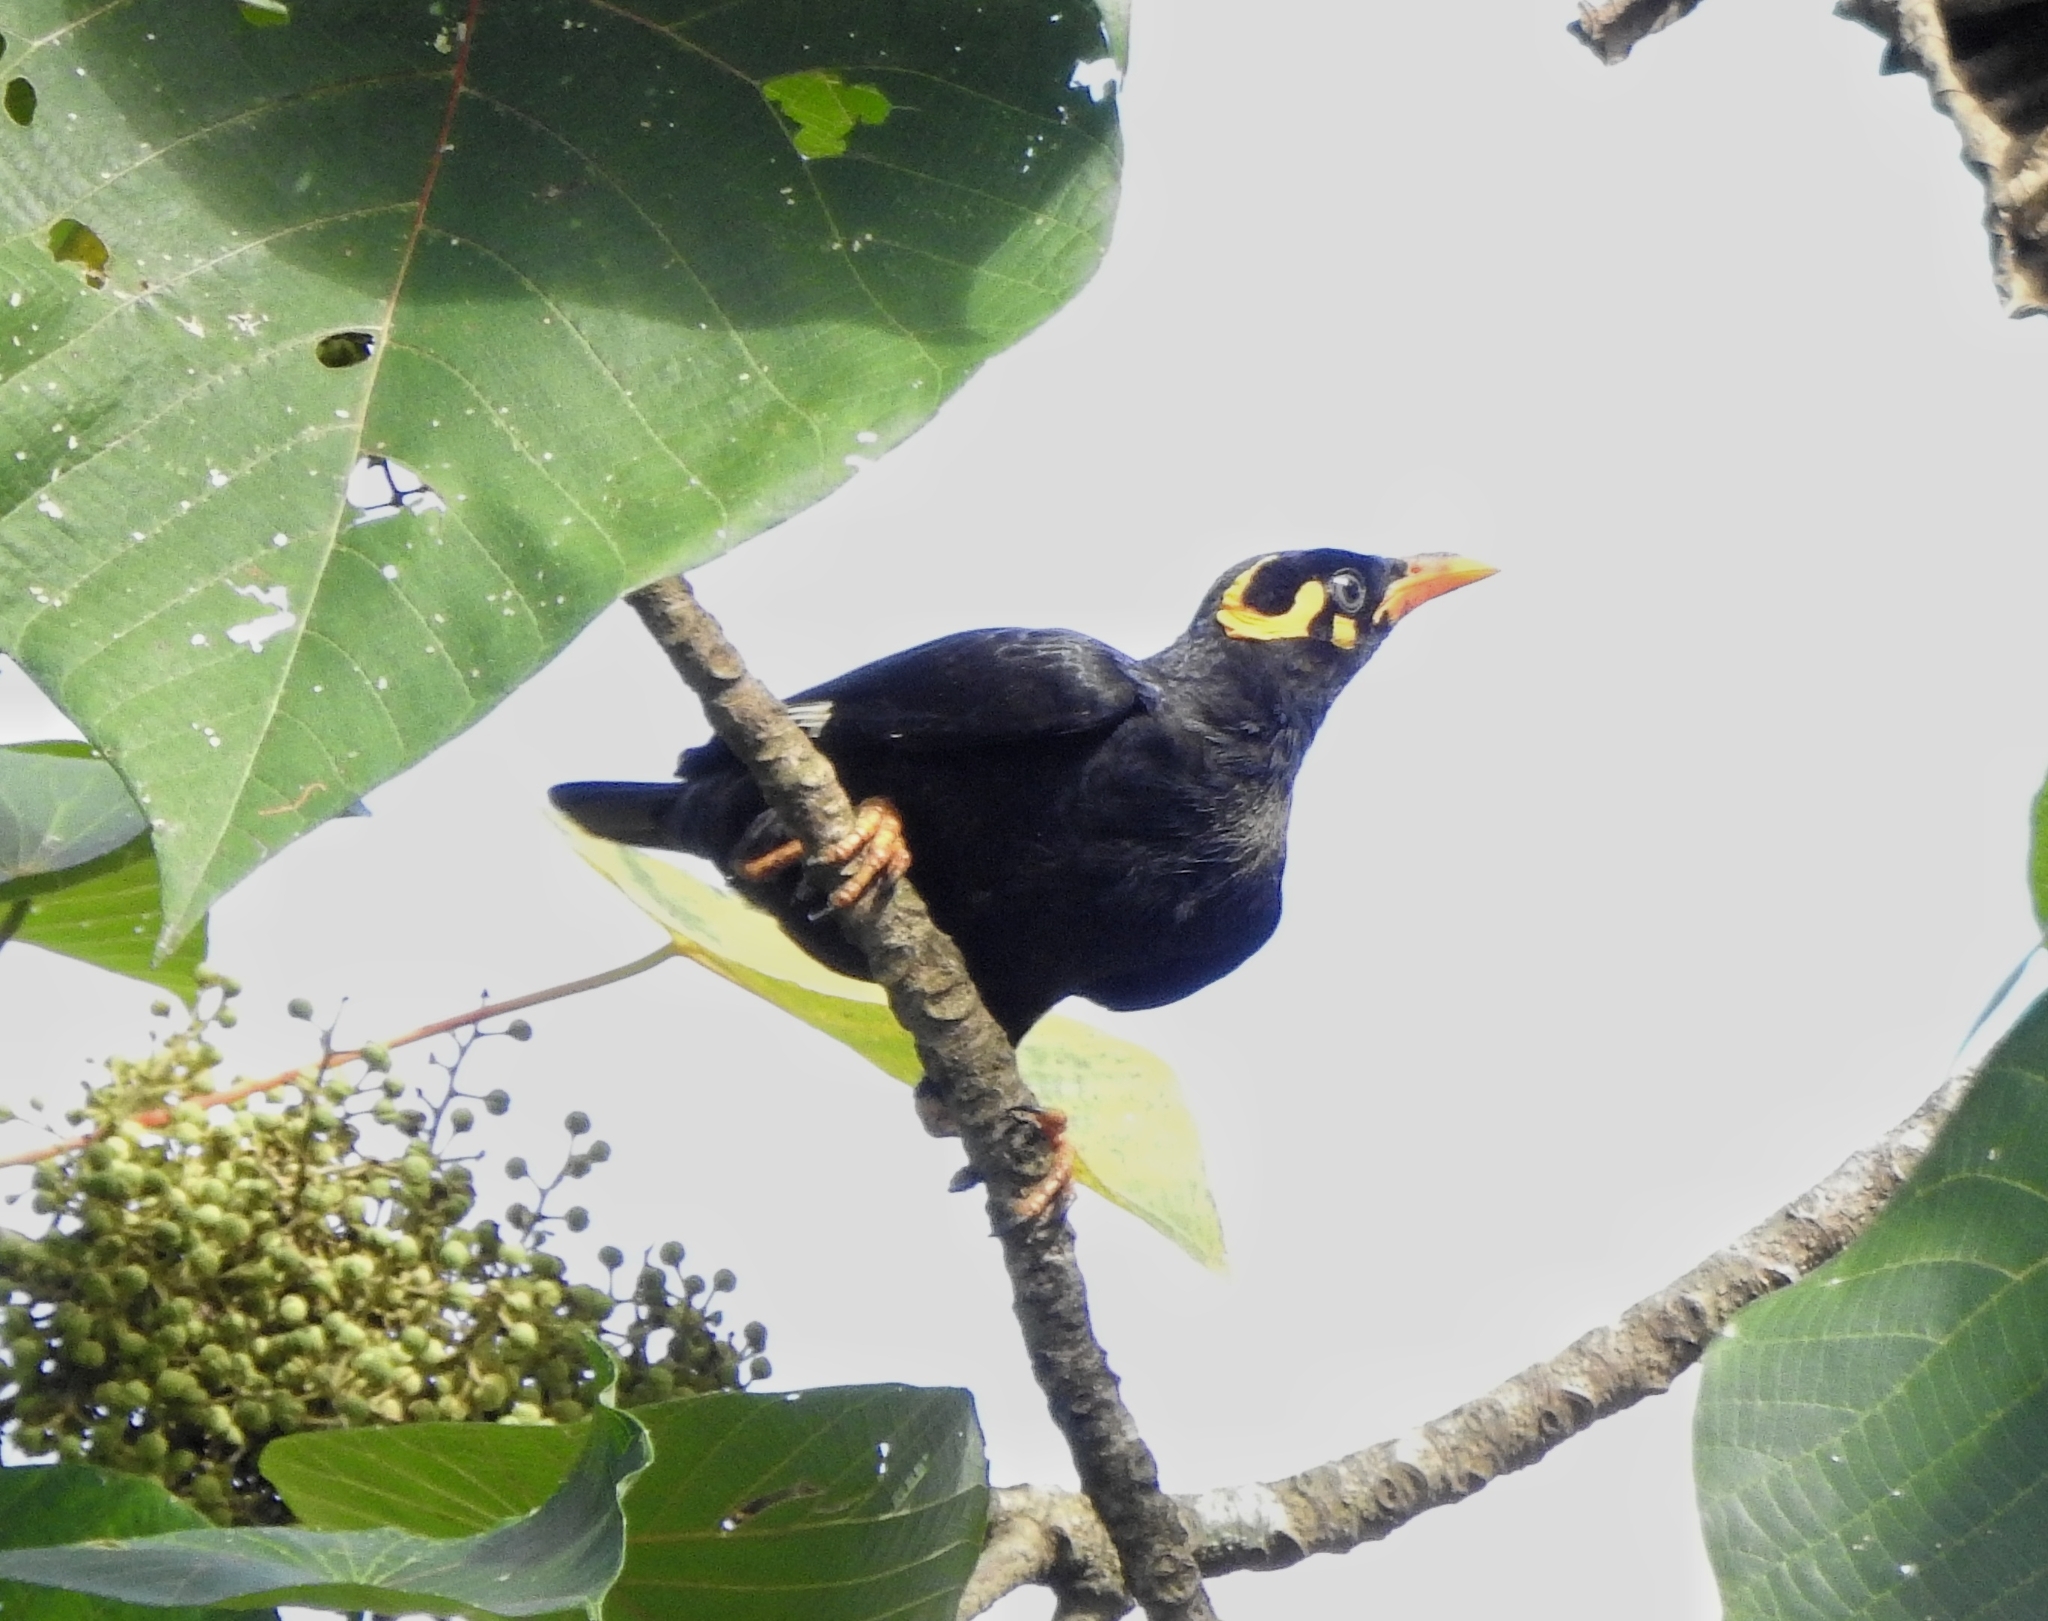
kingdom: Animalia
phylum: Chordata
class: Aves
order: Passeriformes
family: Sturnidae
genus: Gracula
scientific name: Gracula indica
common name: Southern hill myna
